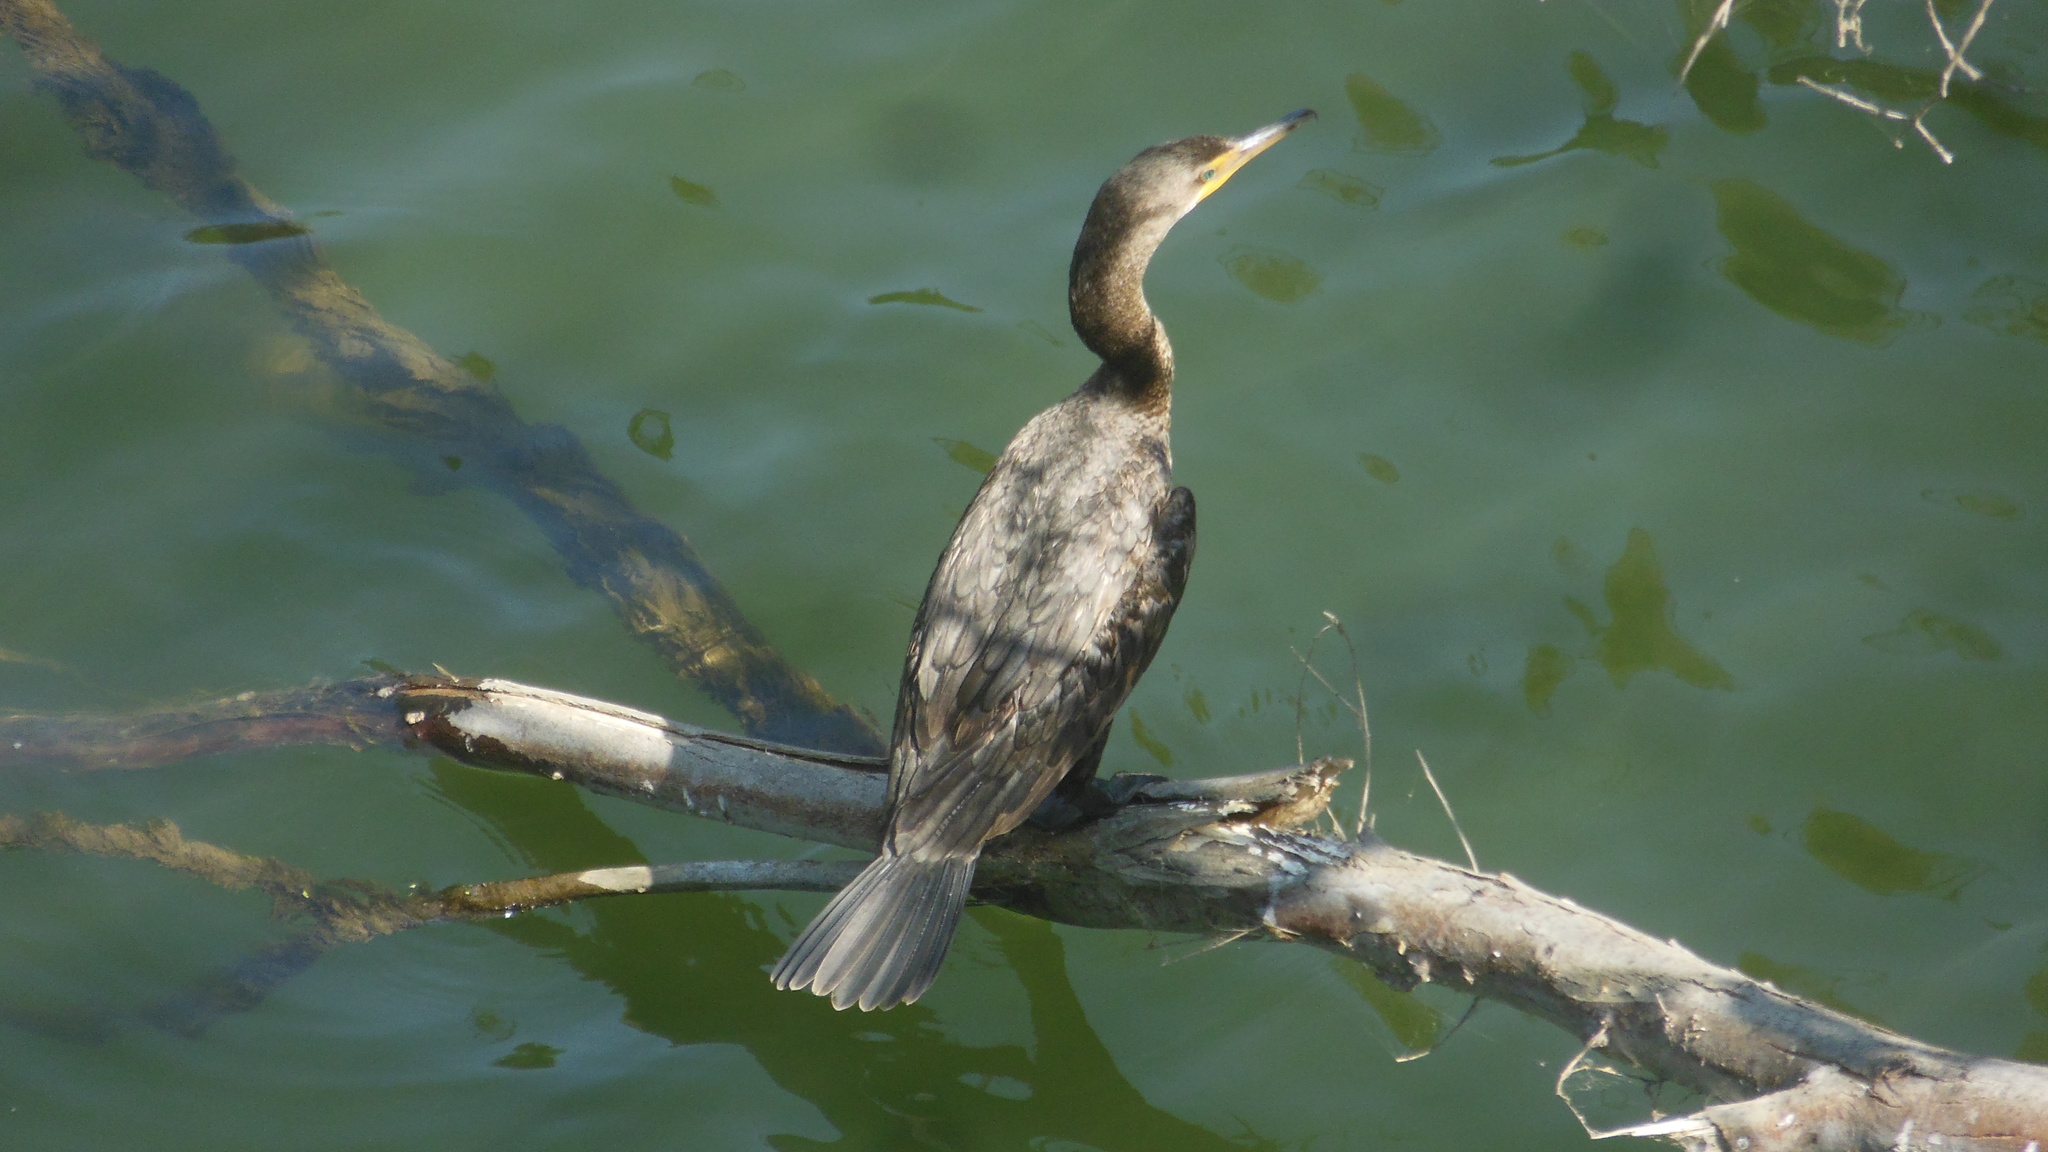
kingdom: Animalia
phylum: Chordata
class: Aves
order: Suliformes
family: Phalacrocoracidae
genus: Phalacrocorax
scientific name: Phalacrocorax auritus
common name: Double-crested cormorant
